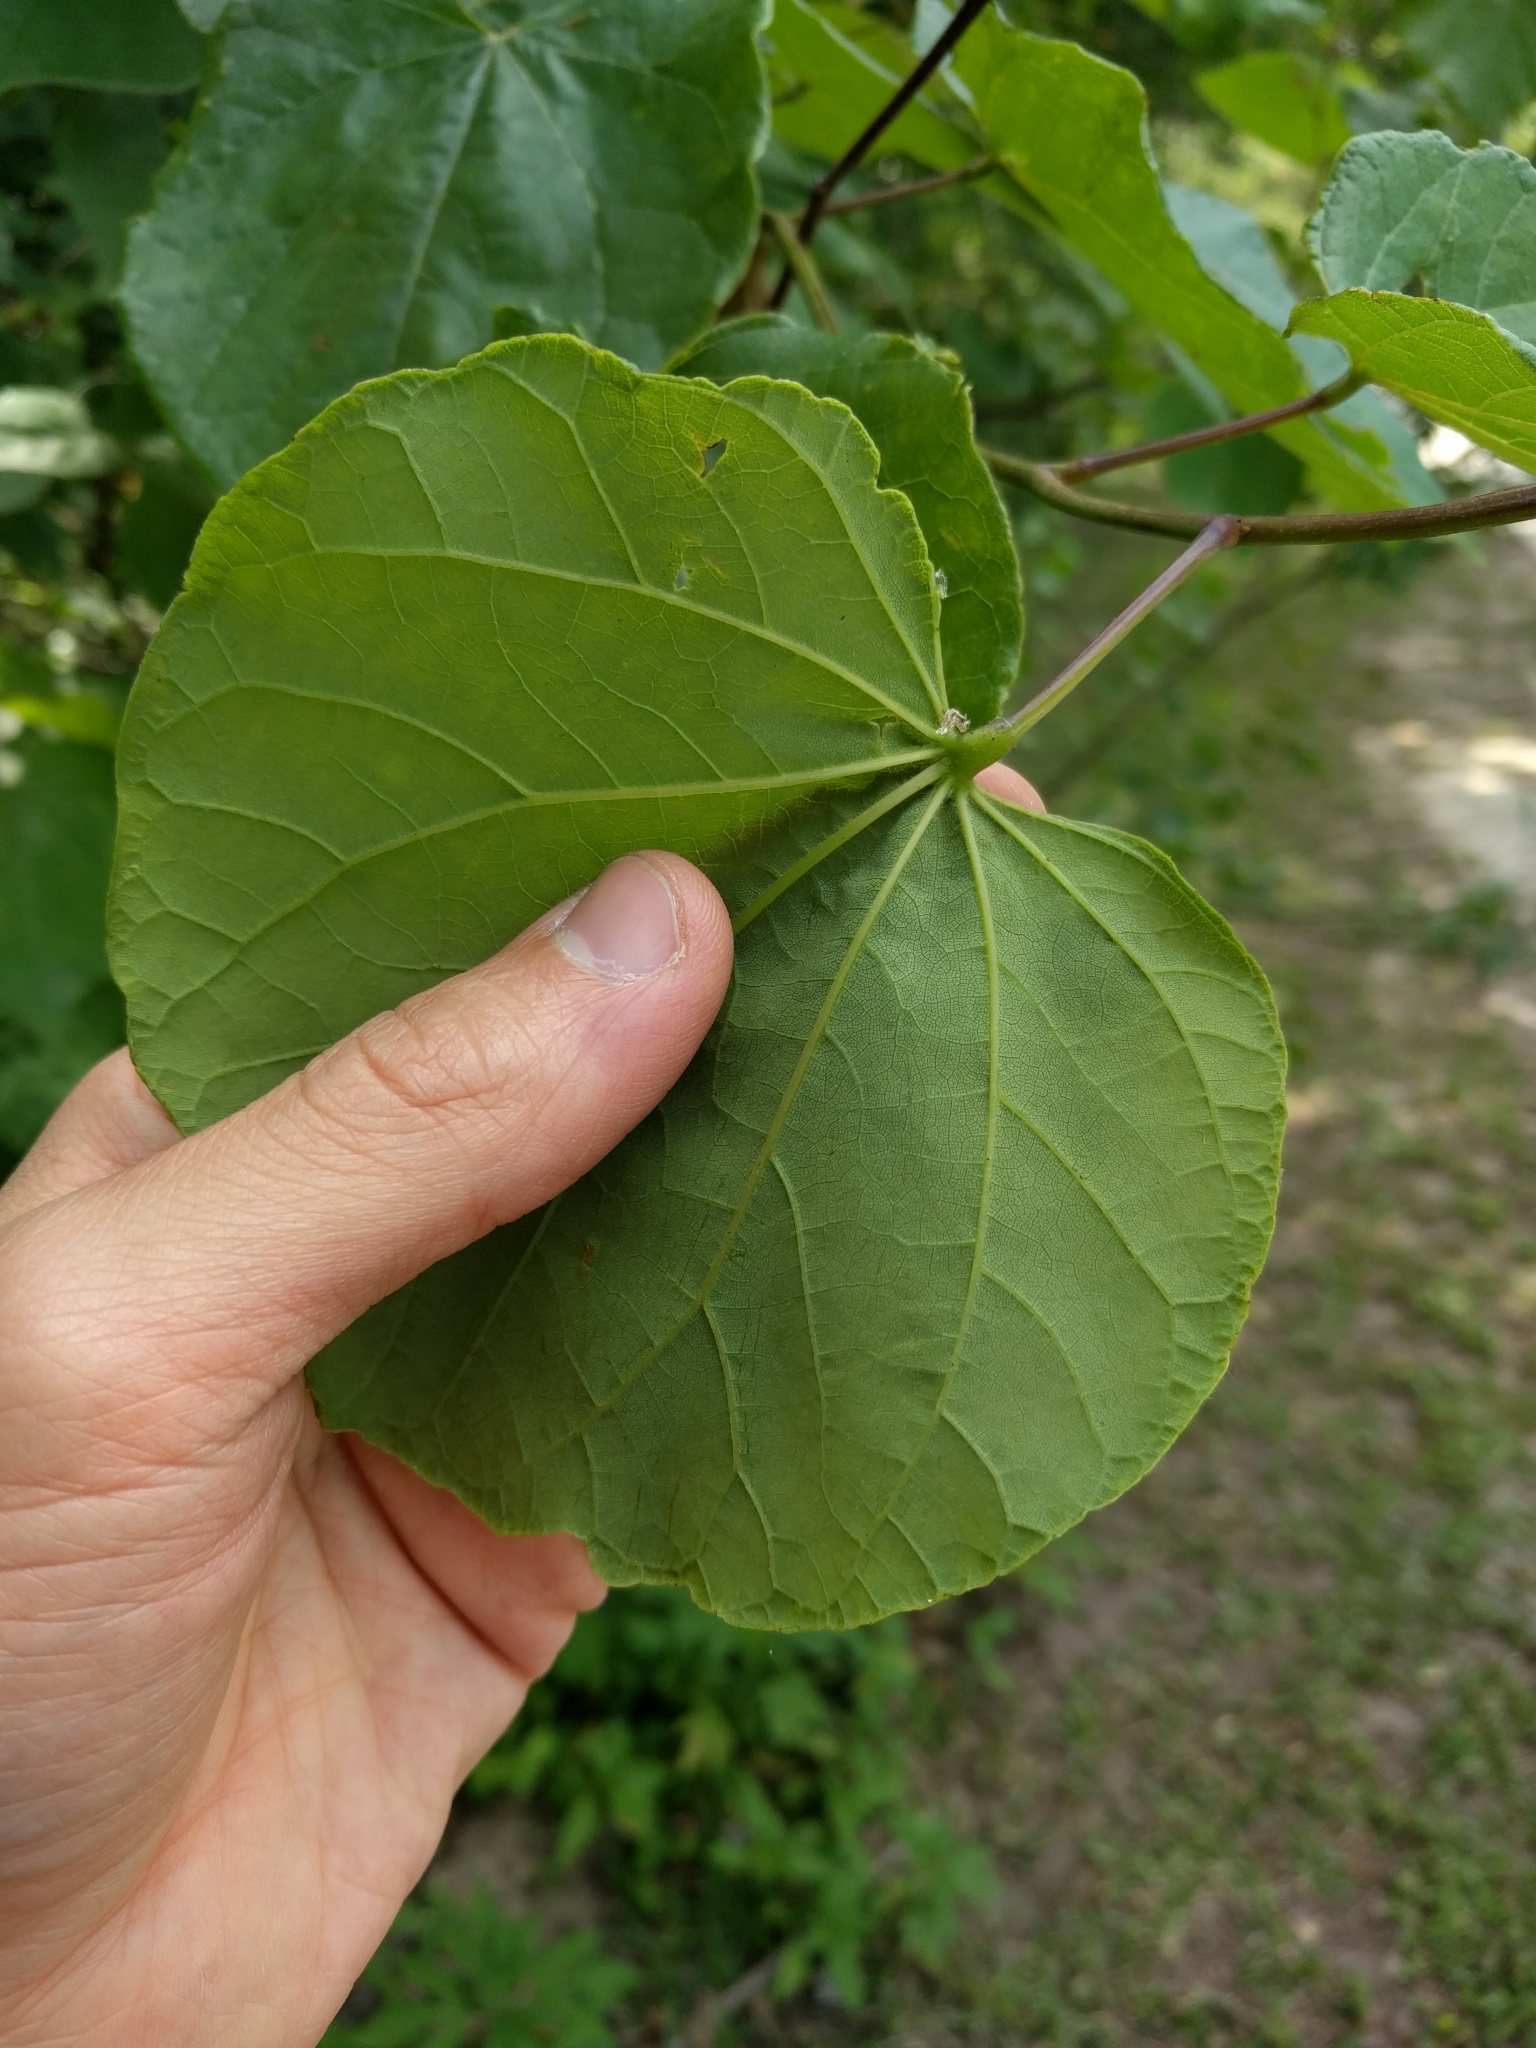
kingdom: Plantae
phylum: Tracheophyta
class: Magnoliopsida
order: Fabales
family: Fabaceae
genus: Cercis
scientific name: Cercis canadensis
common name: Eastern redbud
